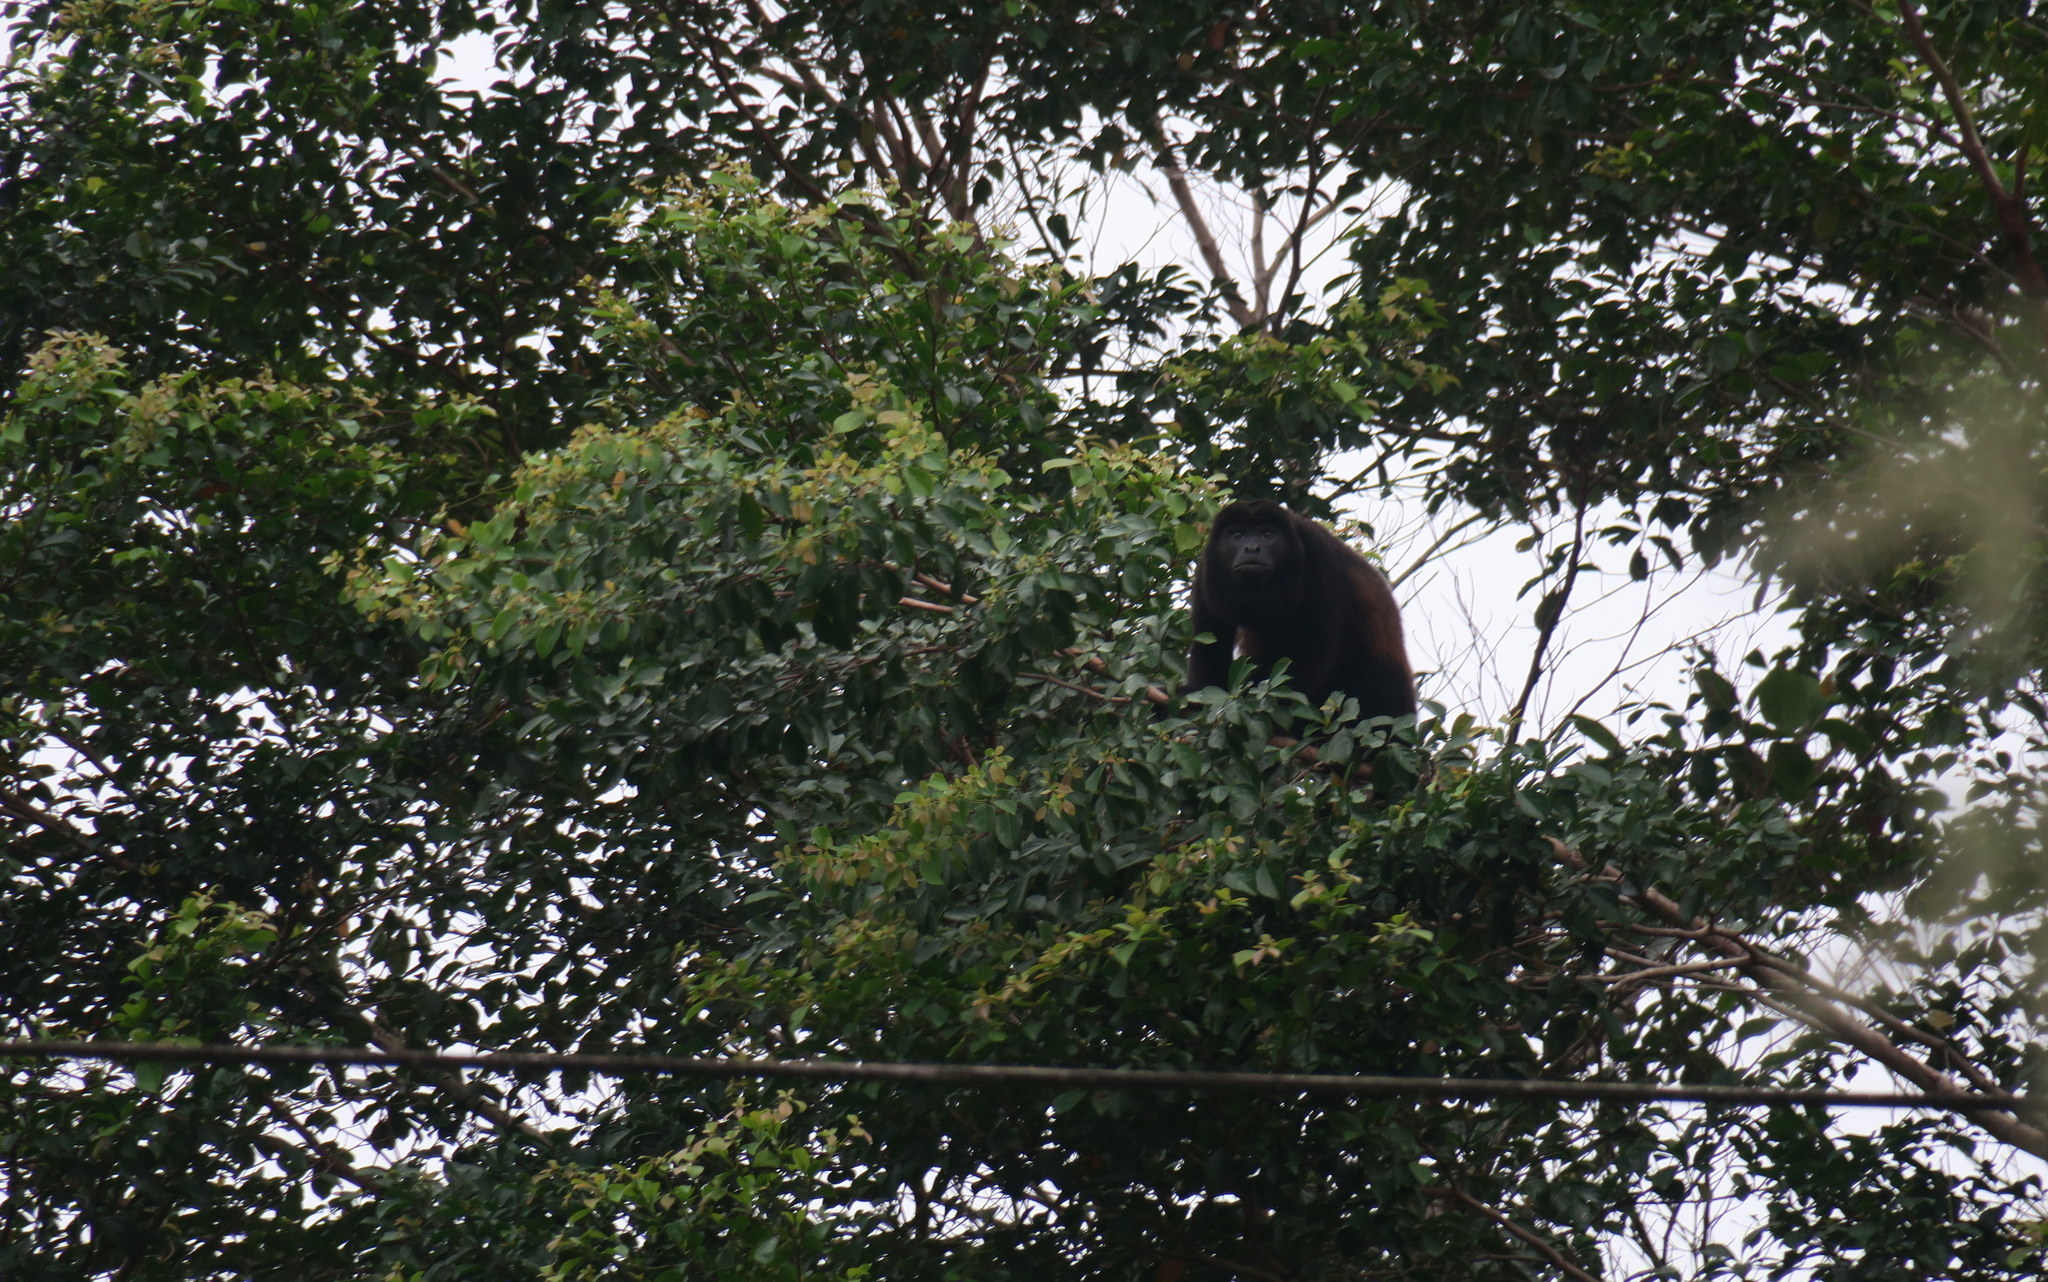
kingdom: Animalia
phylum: Chordata
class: Mammalia
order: Primates
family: Atelidae
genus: Alouatta
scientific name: Alouatta palliata
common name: Mantled howler
